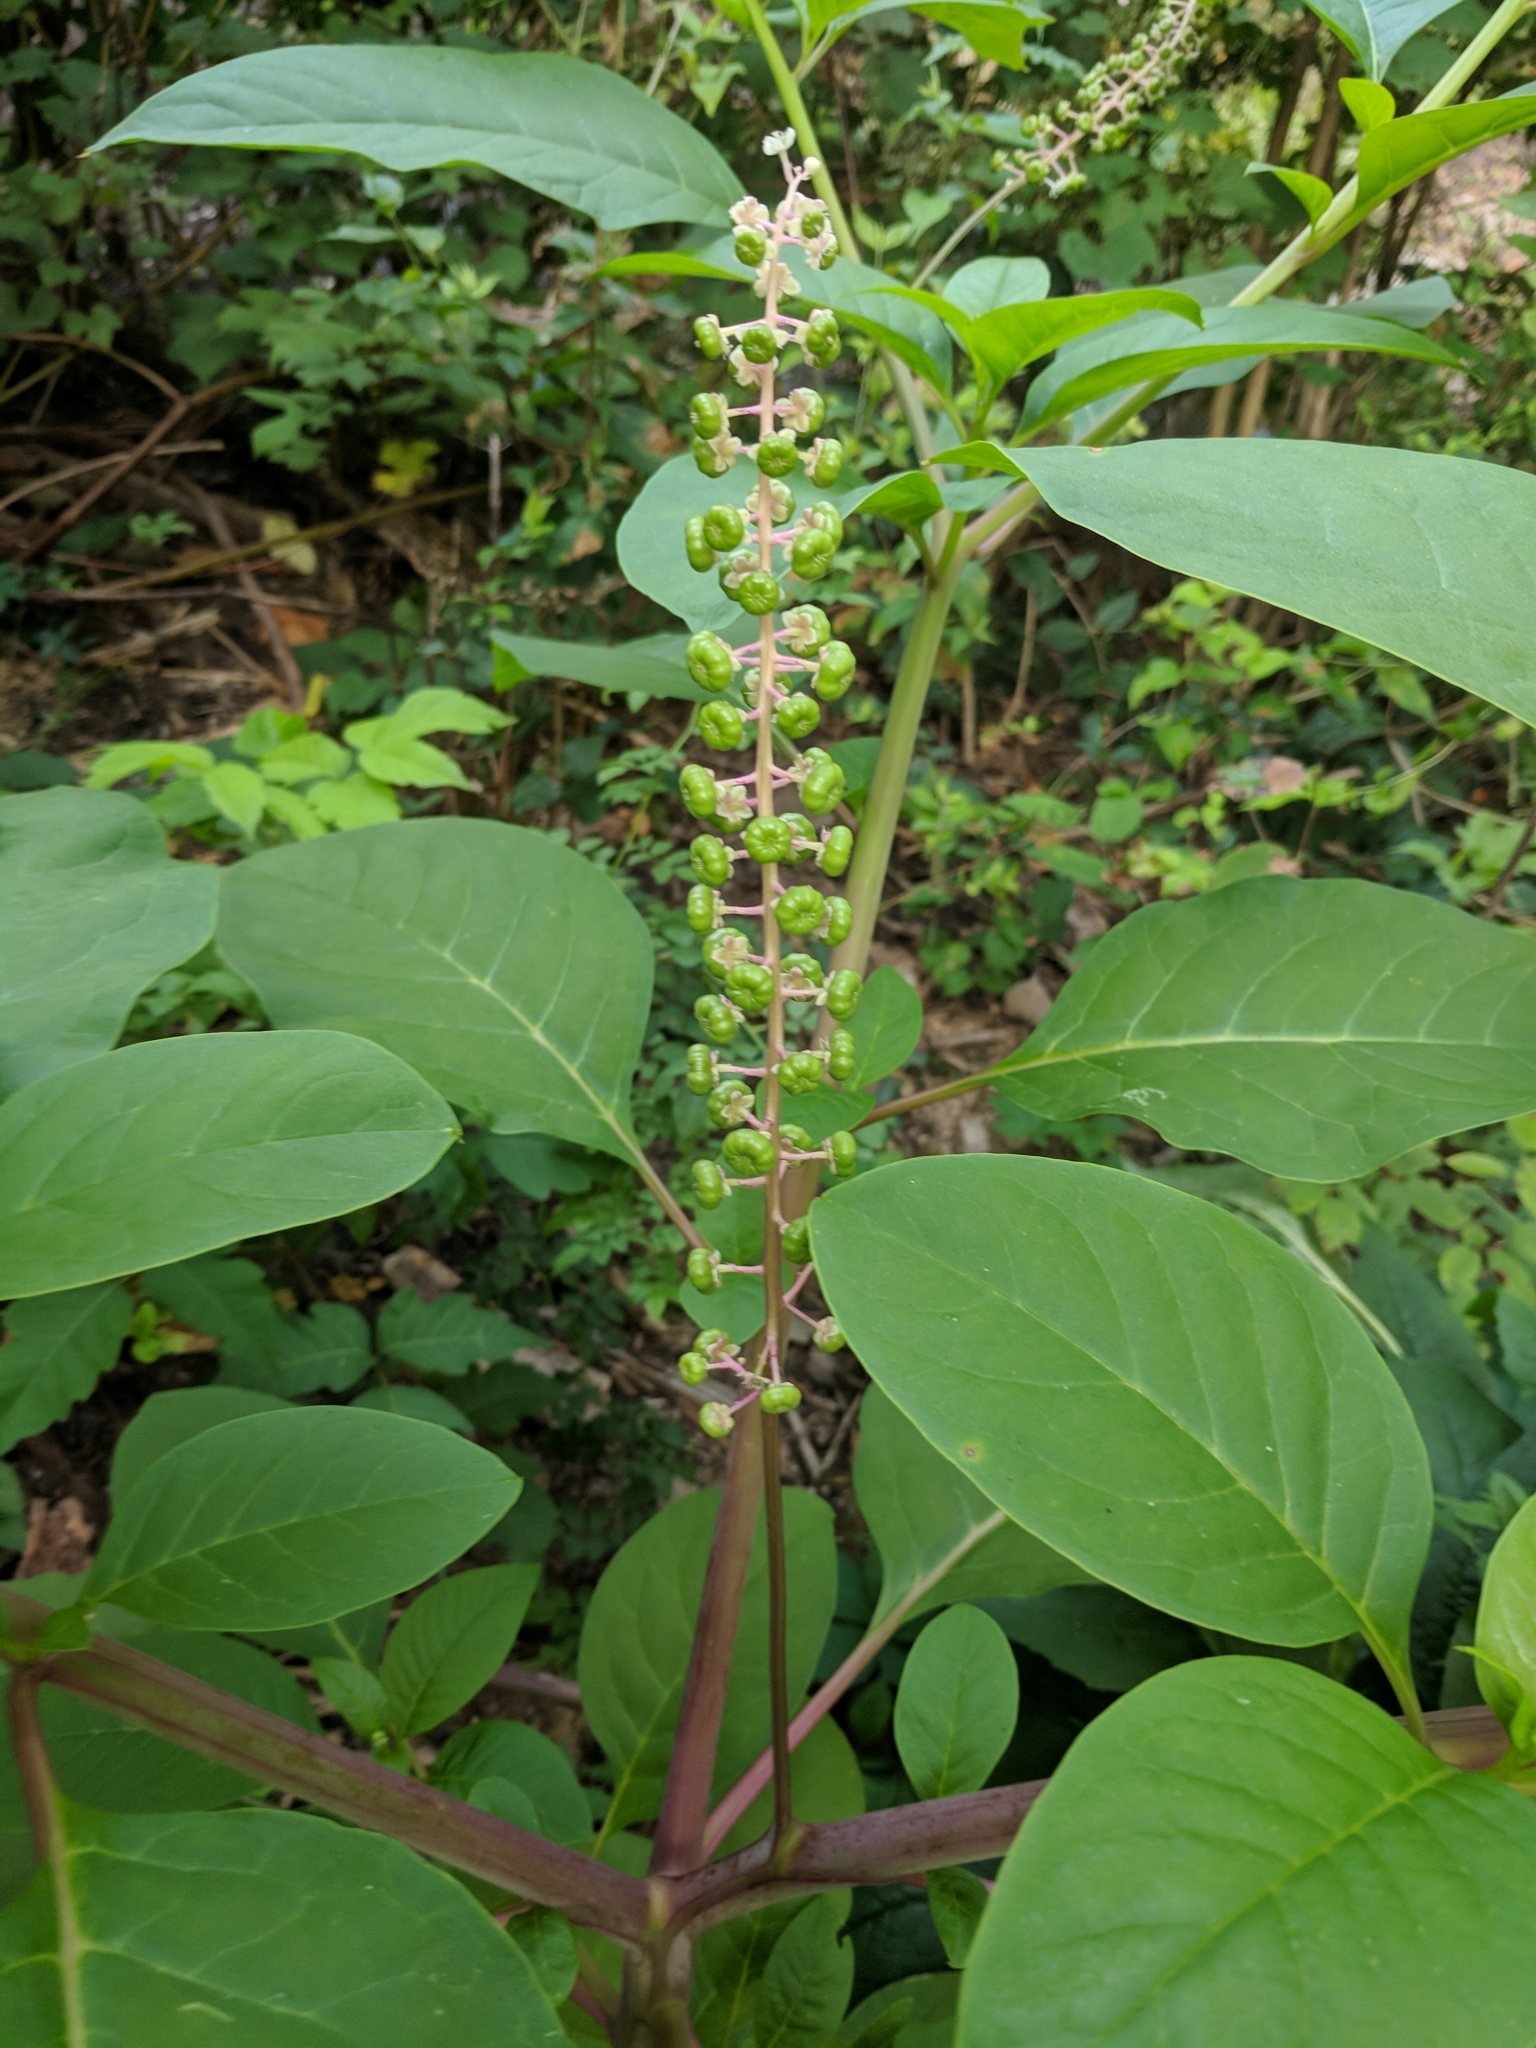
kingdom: Plantae
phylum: Tracheophyta
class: Magnoliopsida
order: Caryophyllales
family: Phytolaccaceae
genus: Phytolacca
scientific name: Phytolacca americana
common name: American pokeweed
